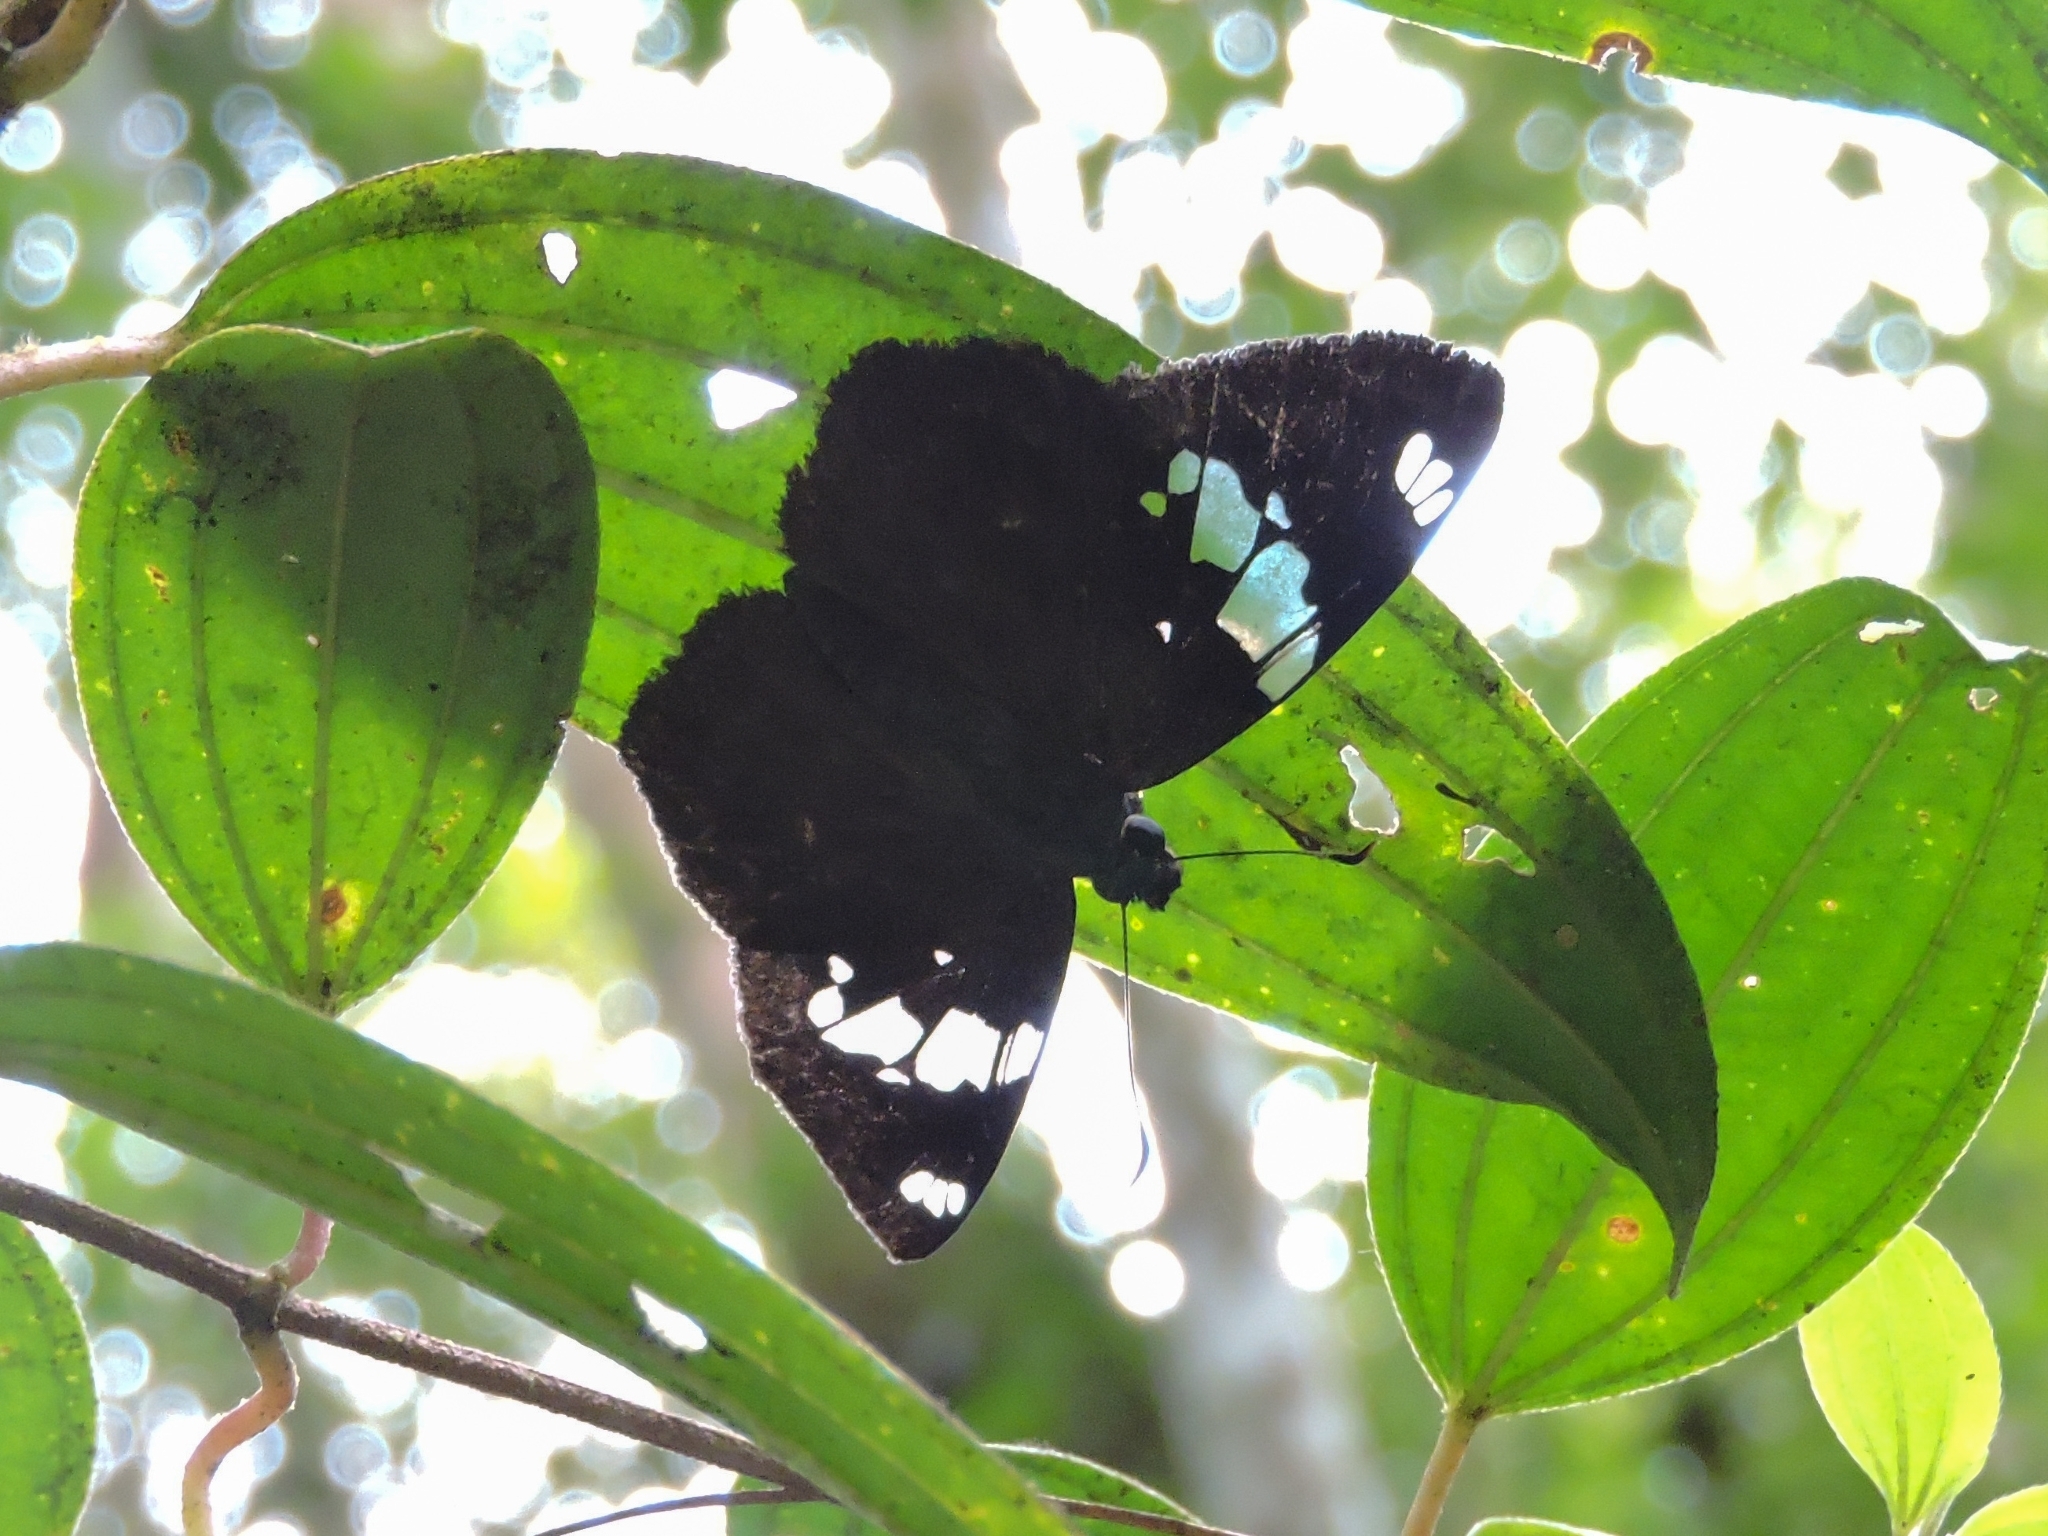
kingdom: Animalia
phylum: Arthropoda
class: Insecta
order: Lepidoptera
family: Hesperiidae
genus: Celaenorrhinus
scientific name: Celaenorrhinus similis
